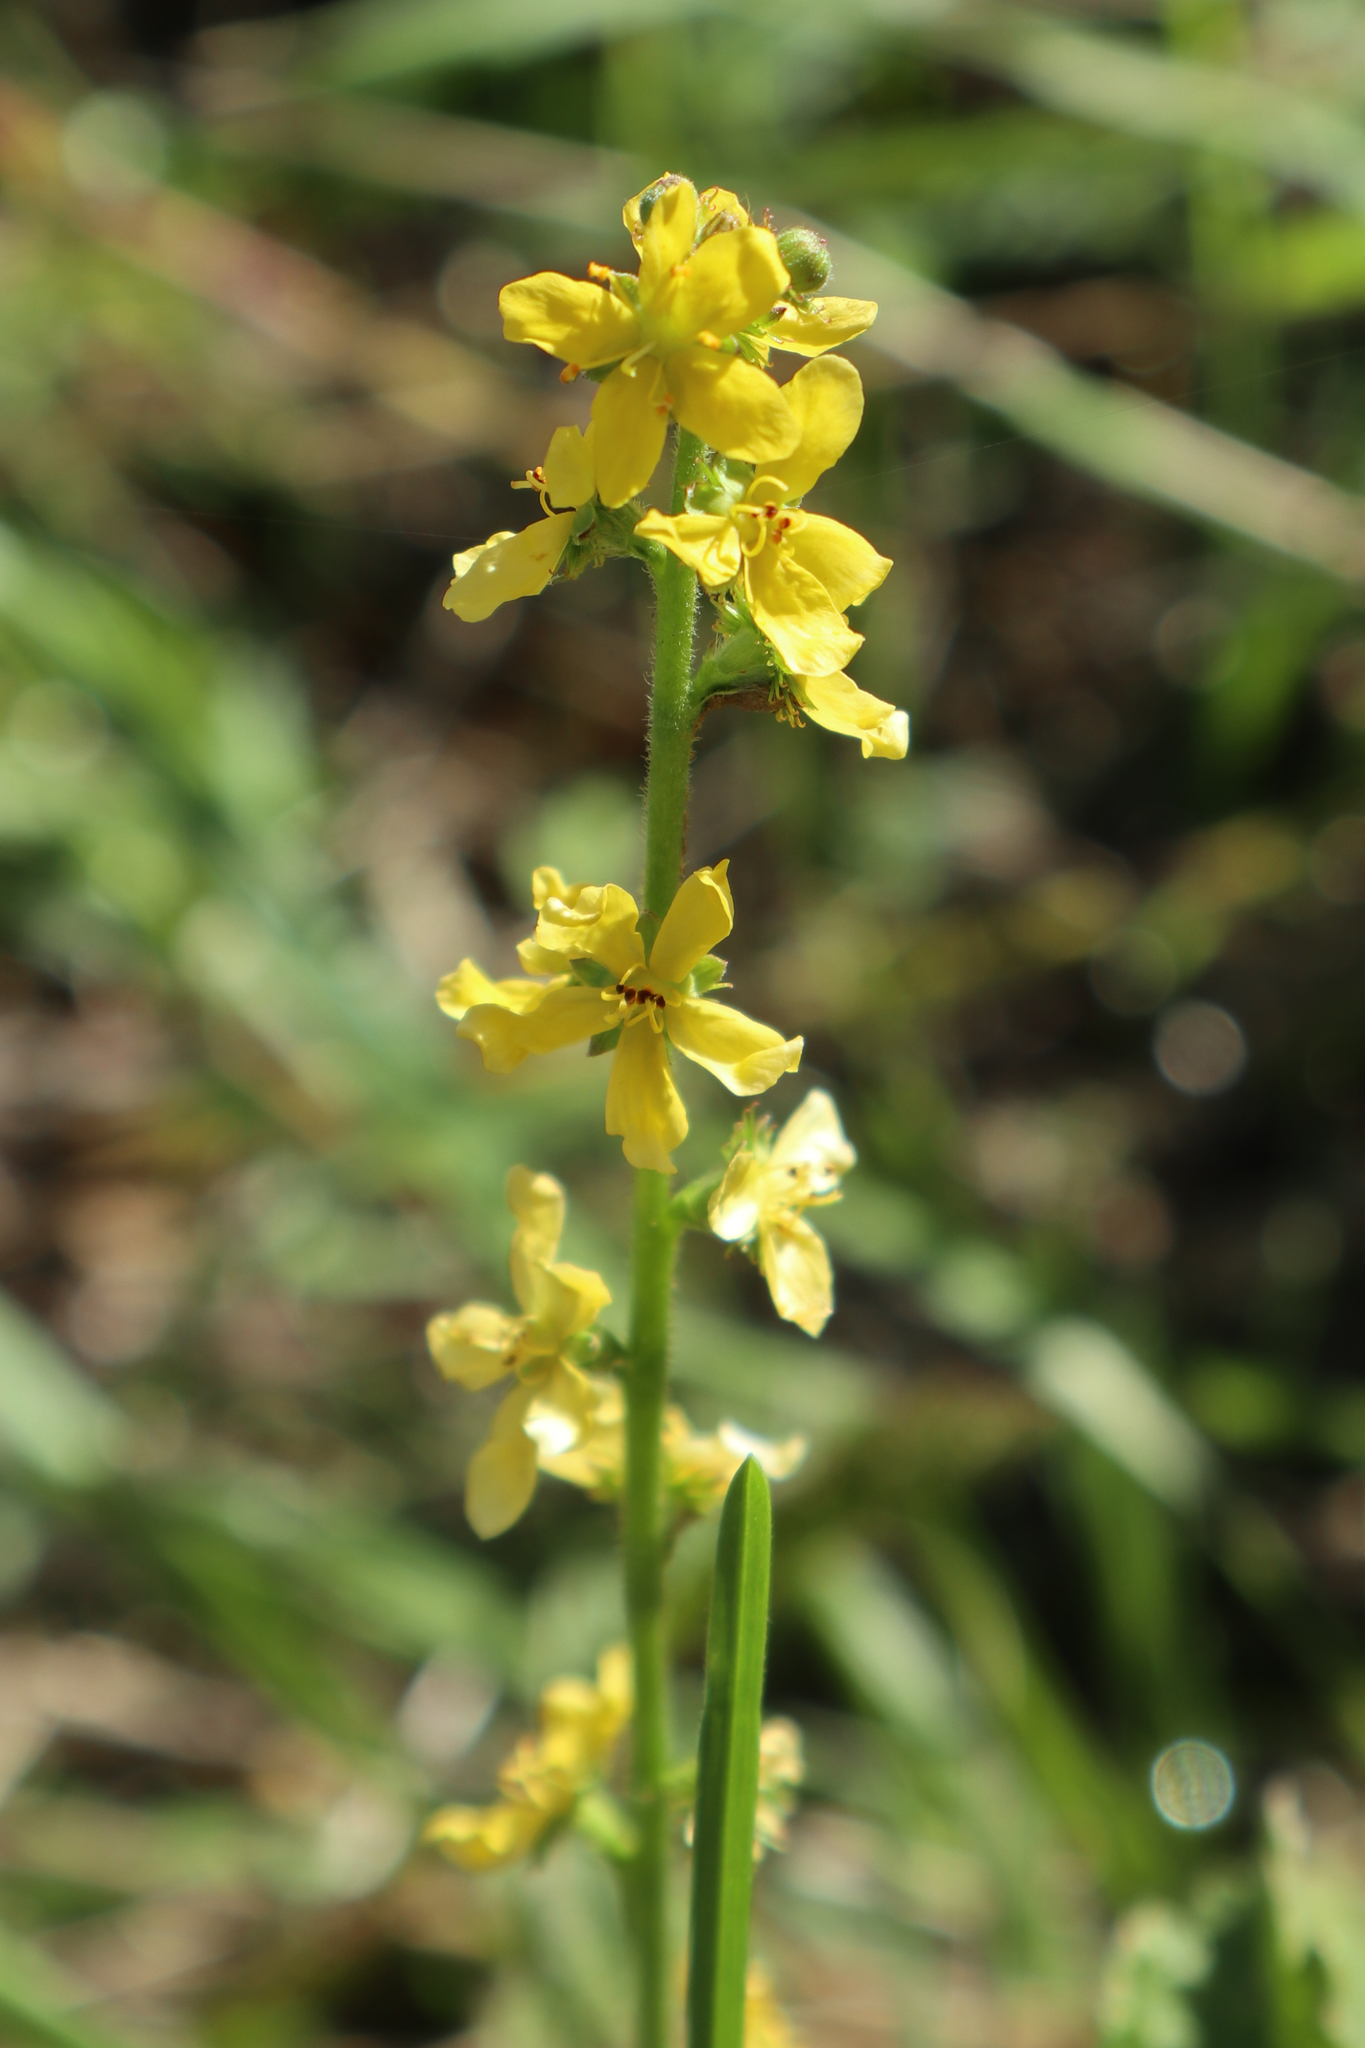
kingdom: Plantae
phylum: Tracheophyta
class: Magnoliopsida
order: Rosales
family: Rosaceae
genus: Agrimonia
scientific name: Agrimonia eupatoria
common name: Agrimony
